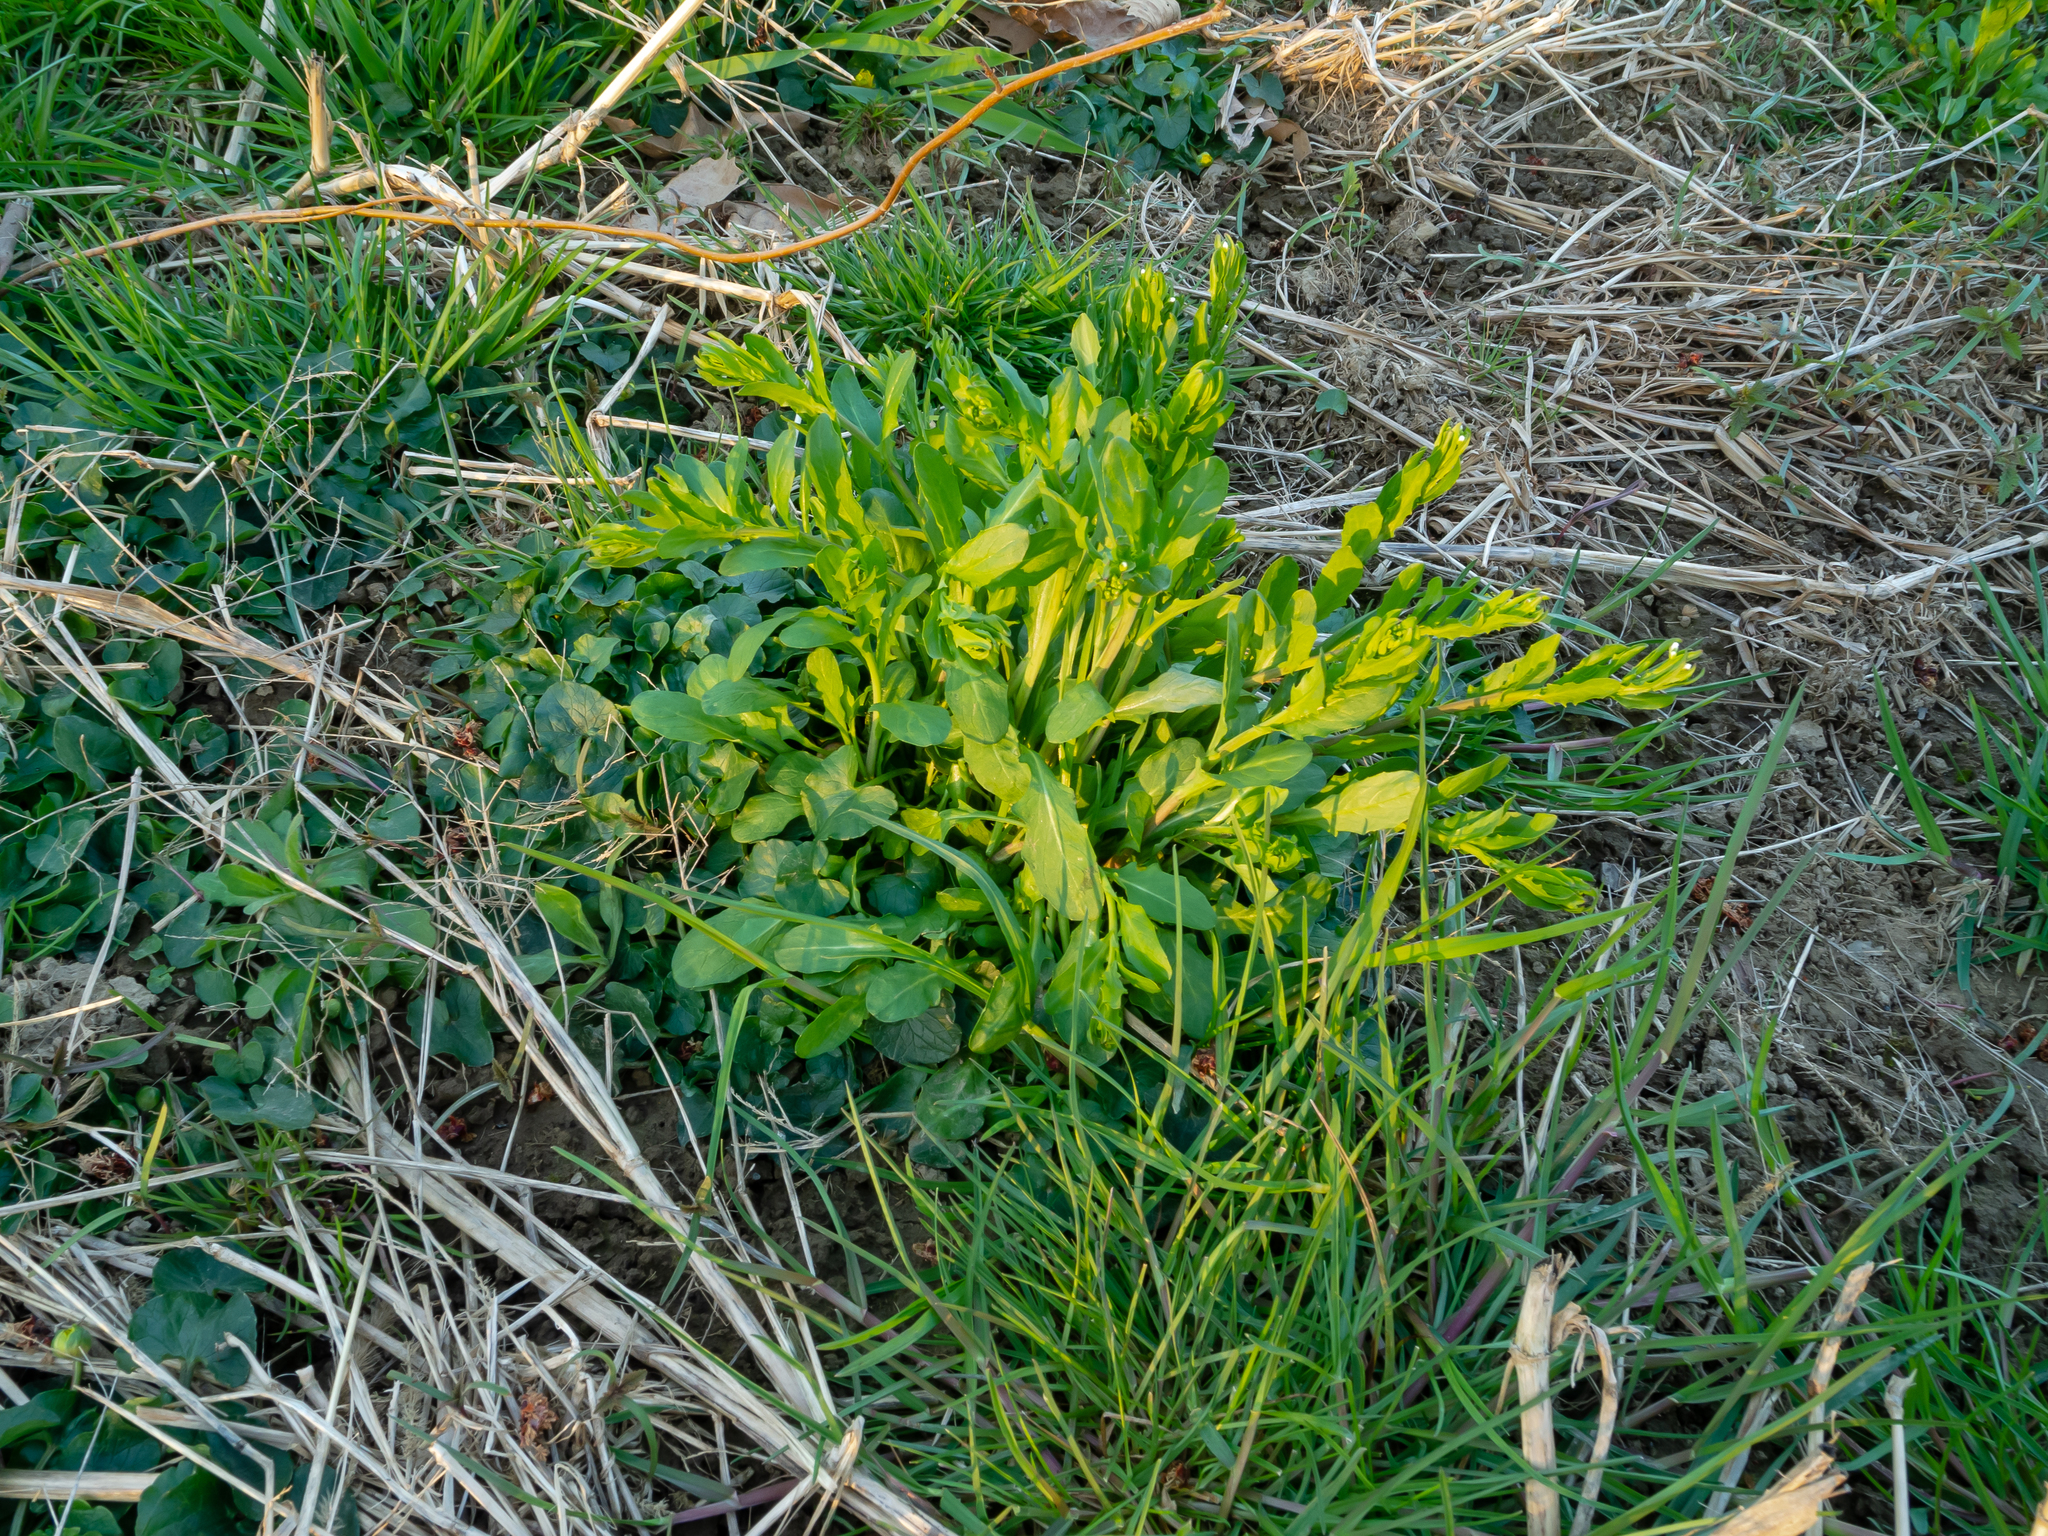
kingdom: Plantae
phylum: Tracheophyta
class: Magnoliopsida
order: Brassicales
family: Brassicaceae
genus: Thlaspi
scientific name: Thlaspi arvense
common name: Field pennycress
